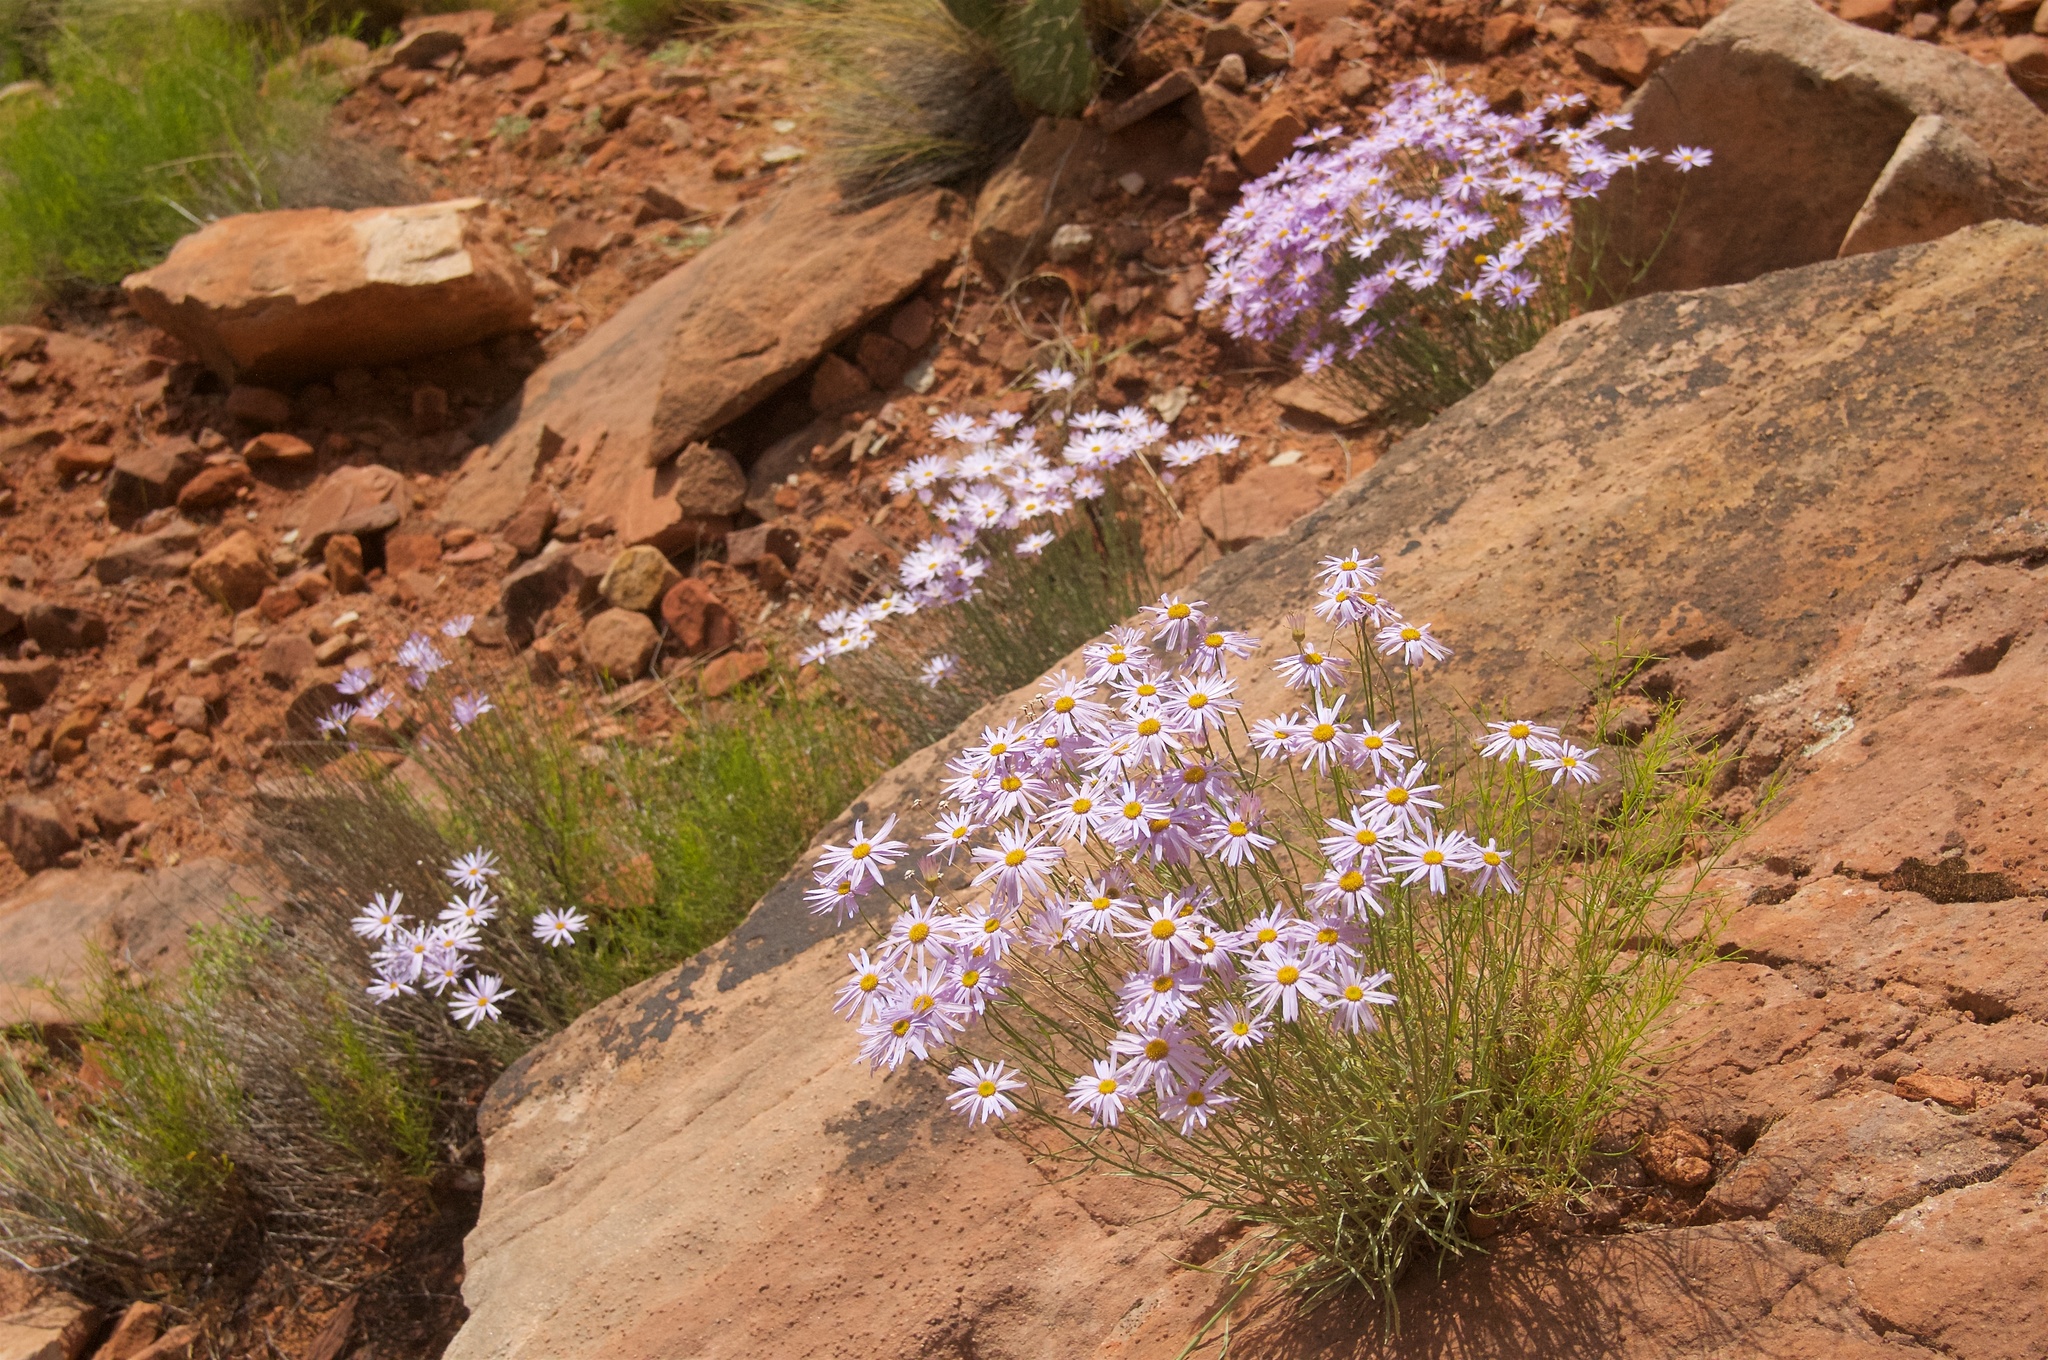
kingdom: Plantae
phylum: Tracheophyta
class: Magnoliopsida
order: Asterales
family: Asteraceae
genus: Erigeron
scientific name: Erigeron utahensis
